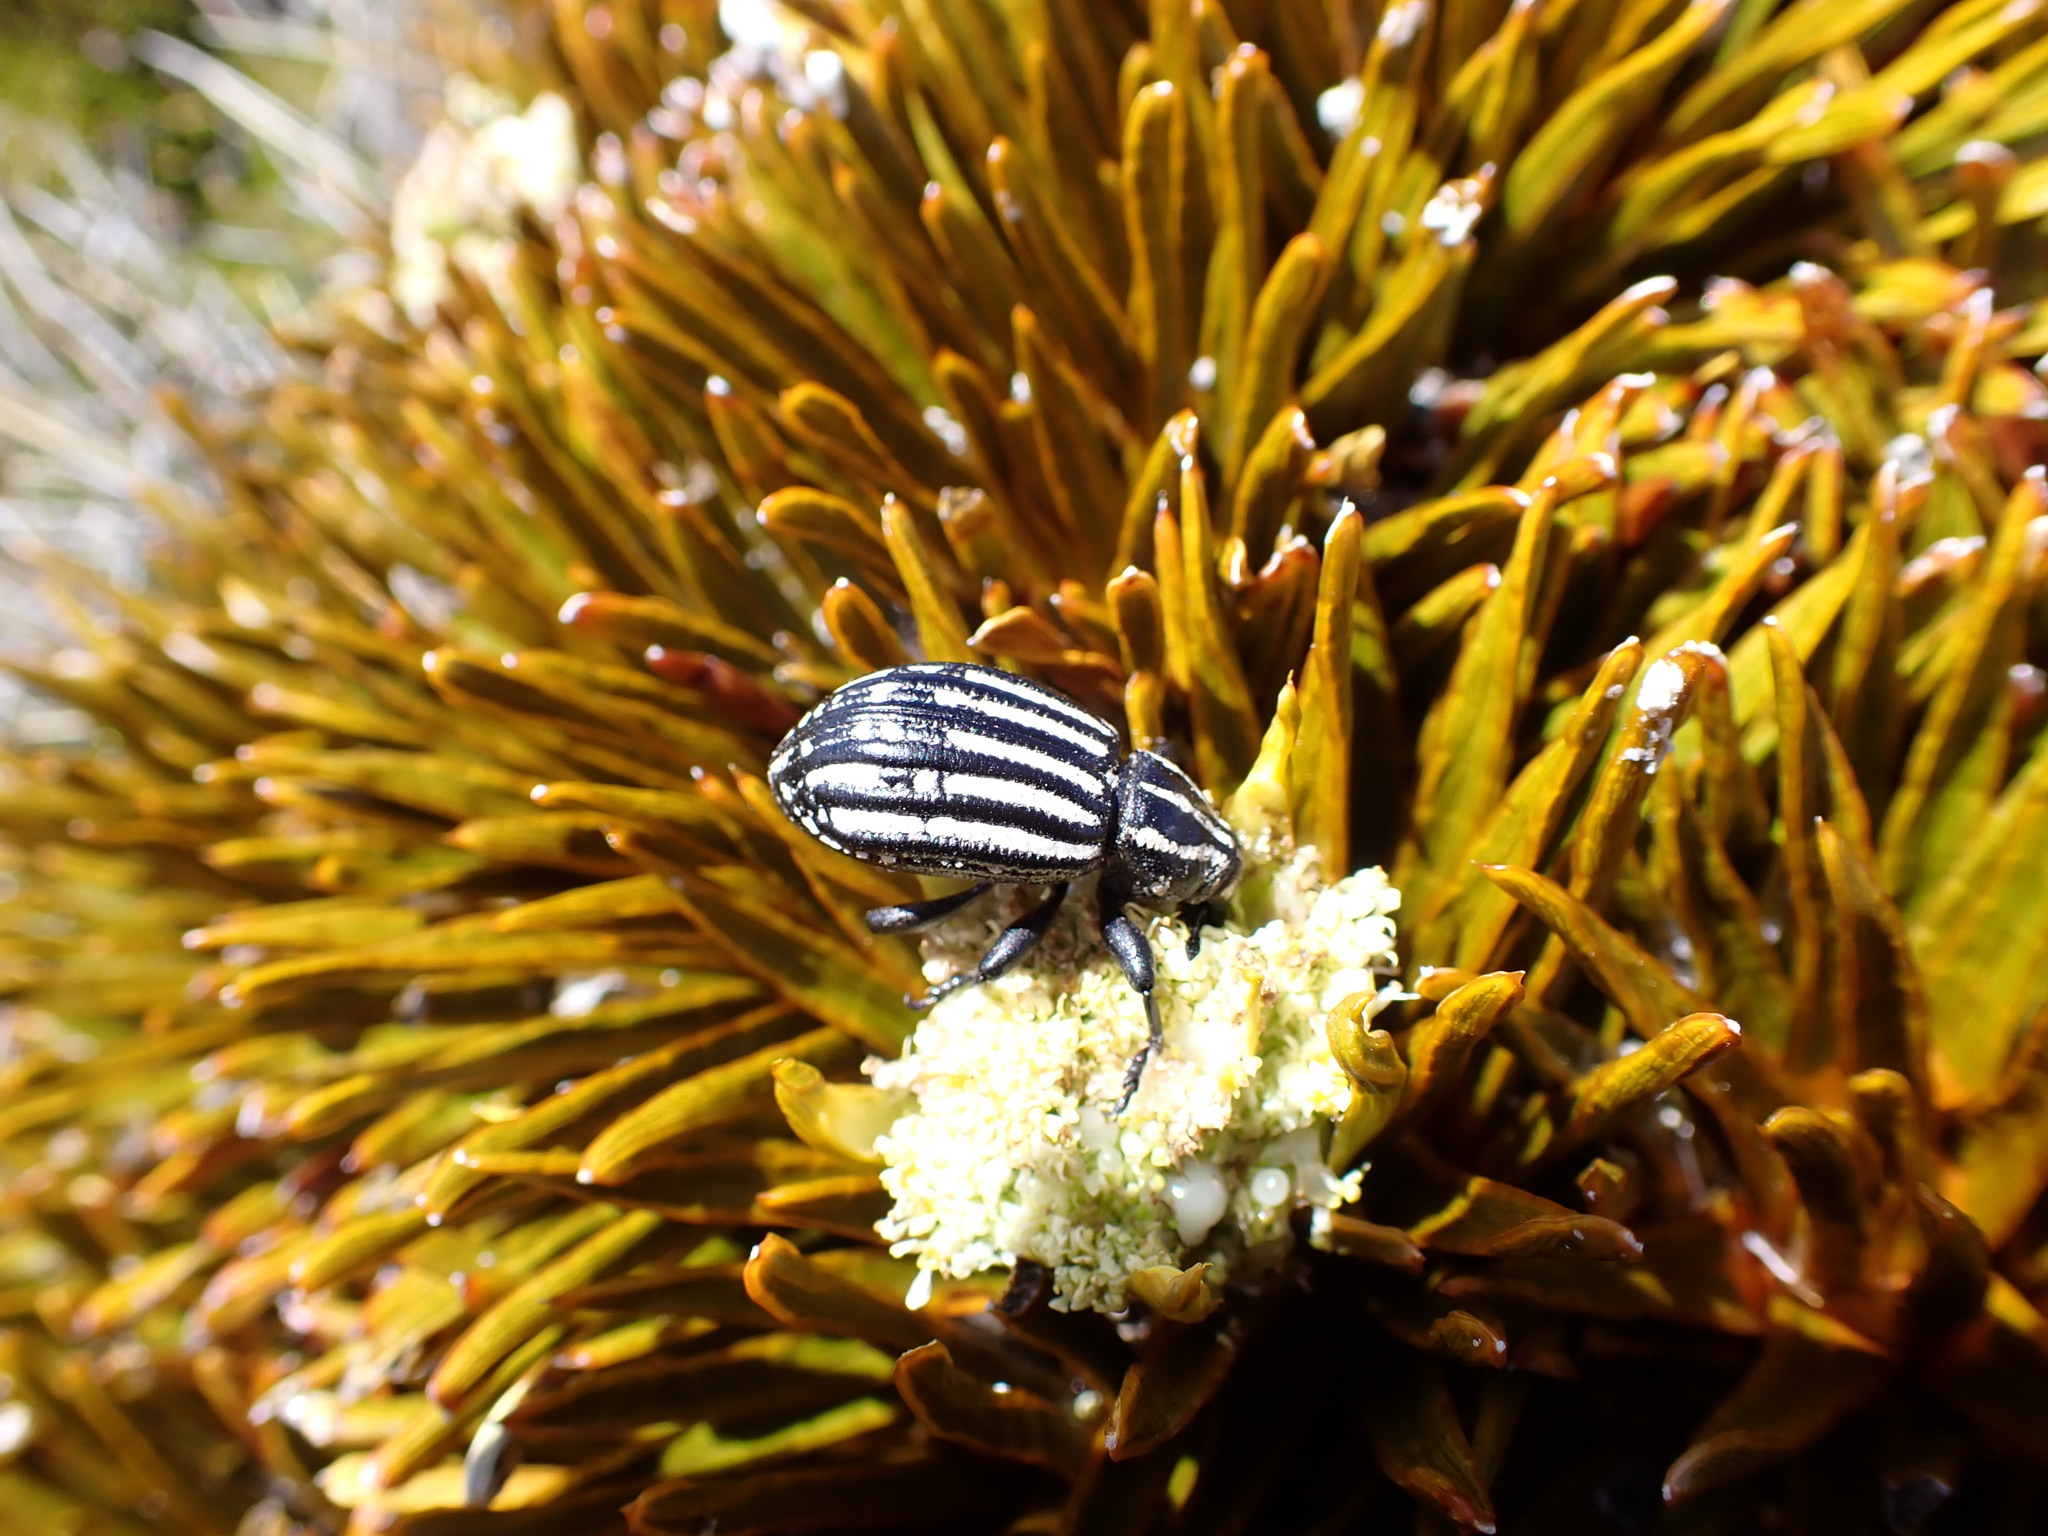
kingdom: Animalia
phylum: Arthropoda
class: Insecta
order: Coleoptera
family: Curculionidae
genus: Lyperobius
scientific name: Lyperobius hudsoni
